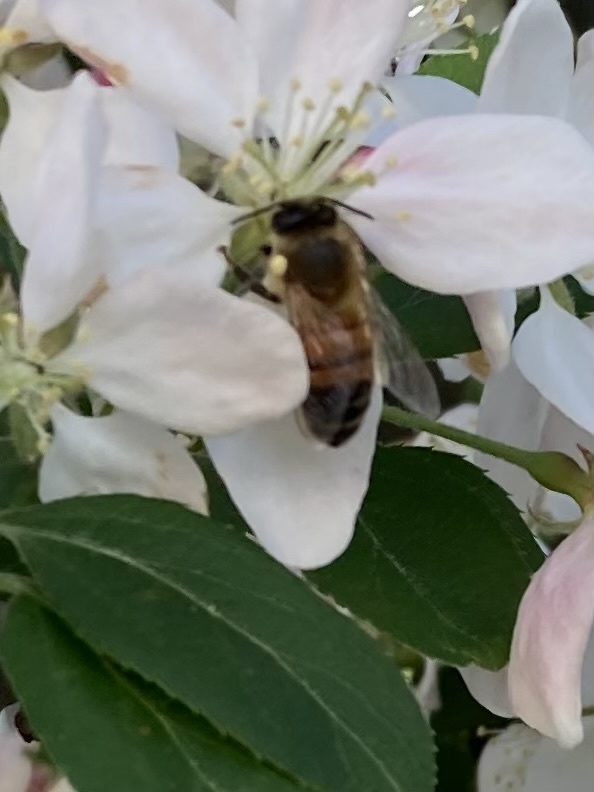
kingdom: Animalia
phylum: Arthropoda
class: Insecta
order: Hymenoptera
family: Apidae
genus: Apis
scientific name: Apis mellifera
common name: Honey bee
